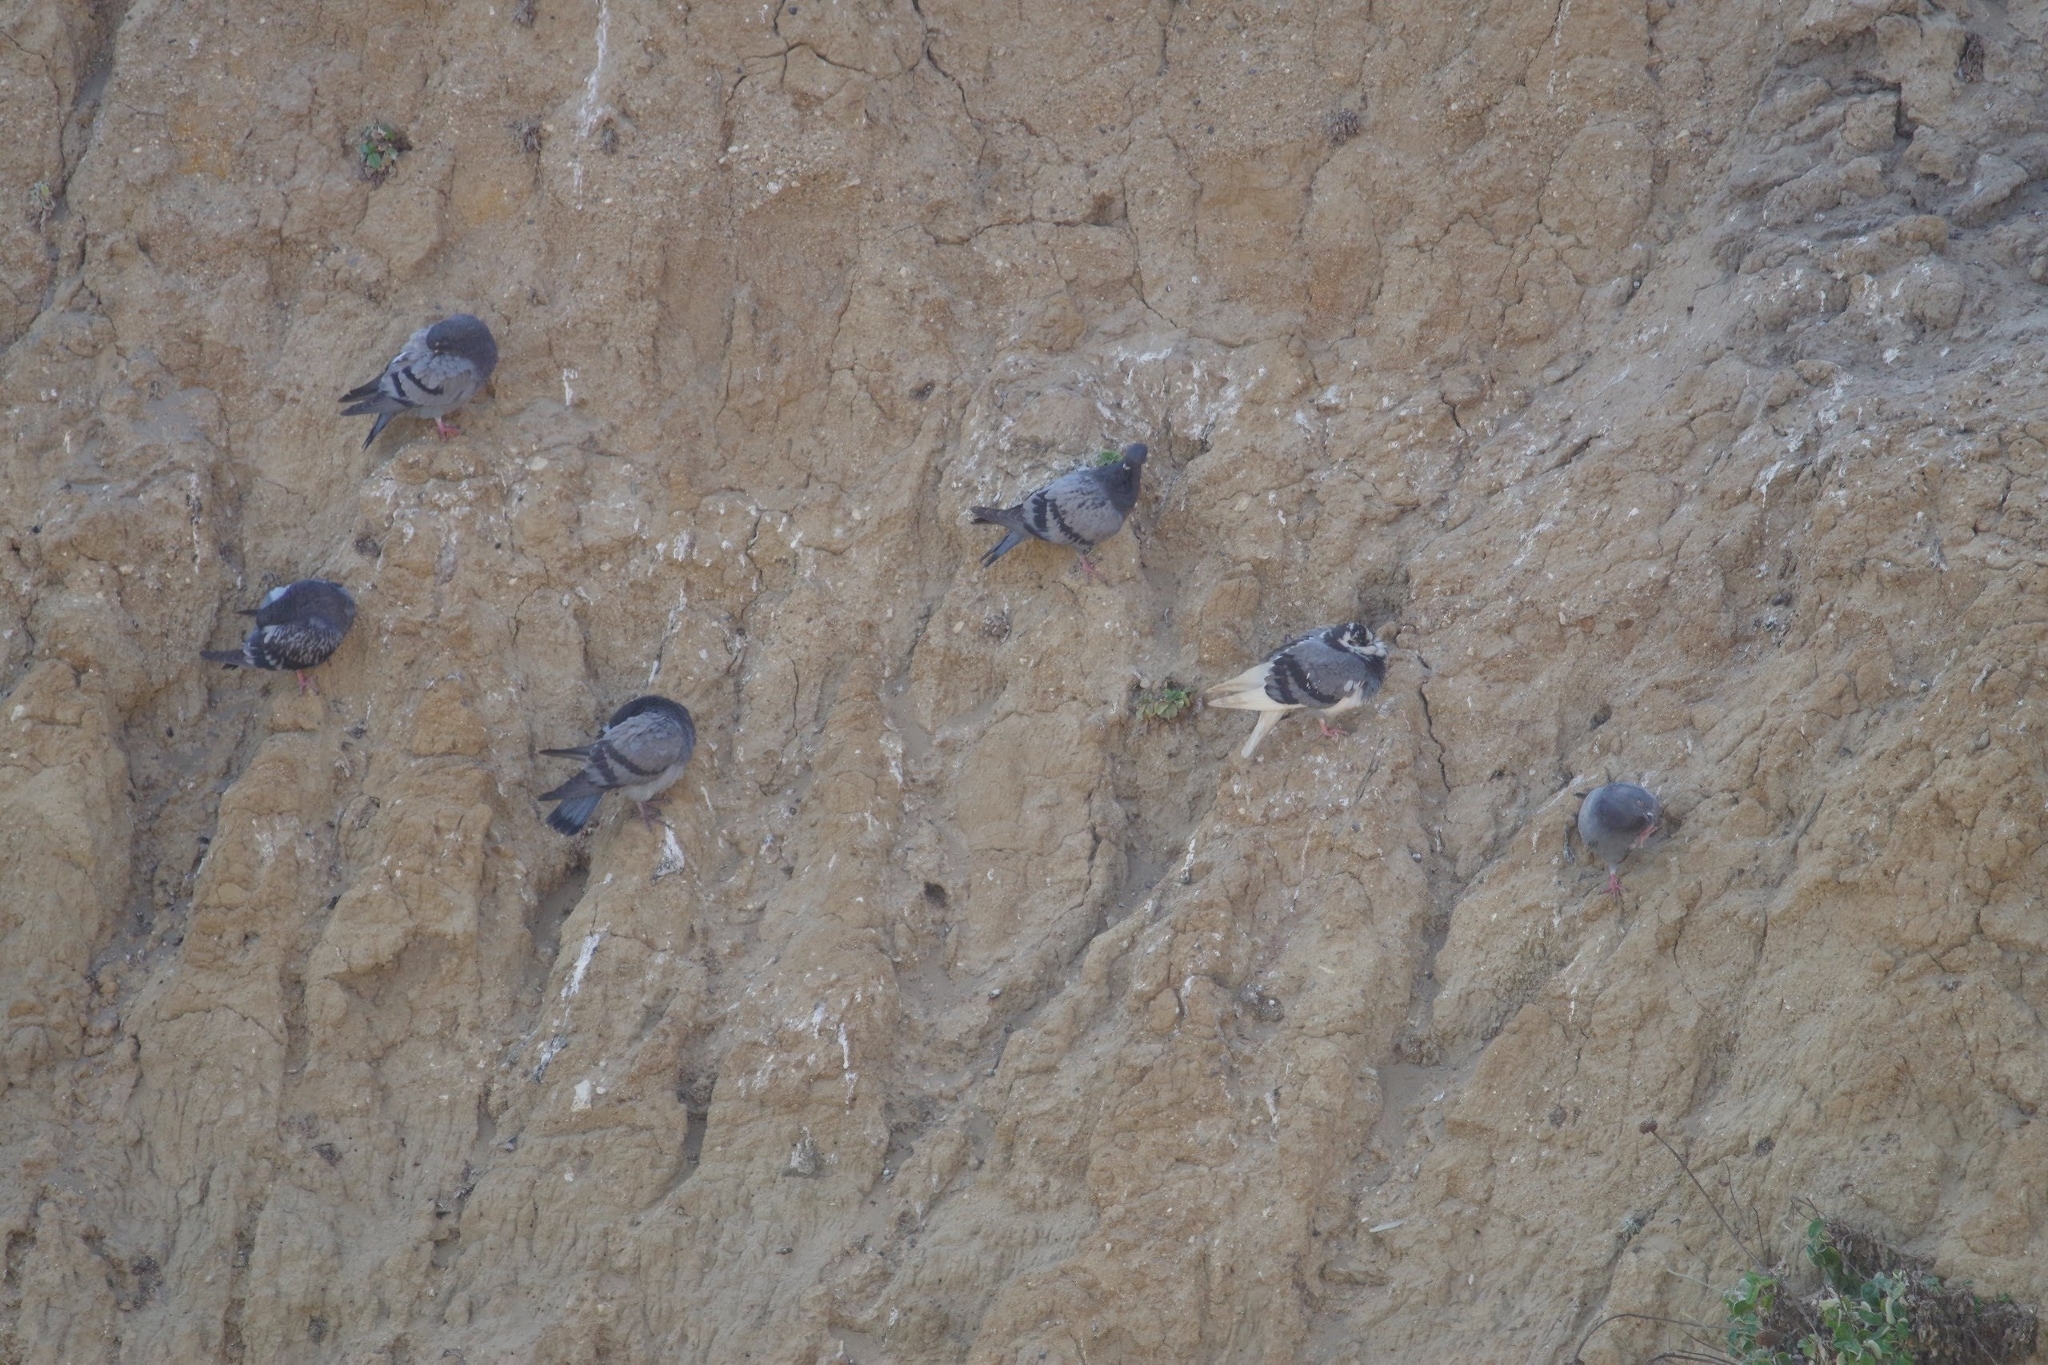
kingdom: Animalia
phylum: Chordata
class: Aves
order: Columbiformes
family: Columbidae
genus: Columba
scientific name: Columba livia
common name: Rock pigeon
